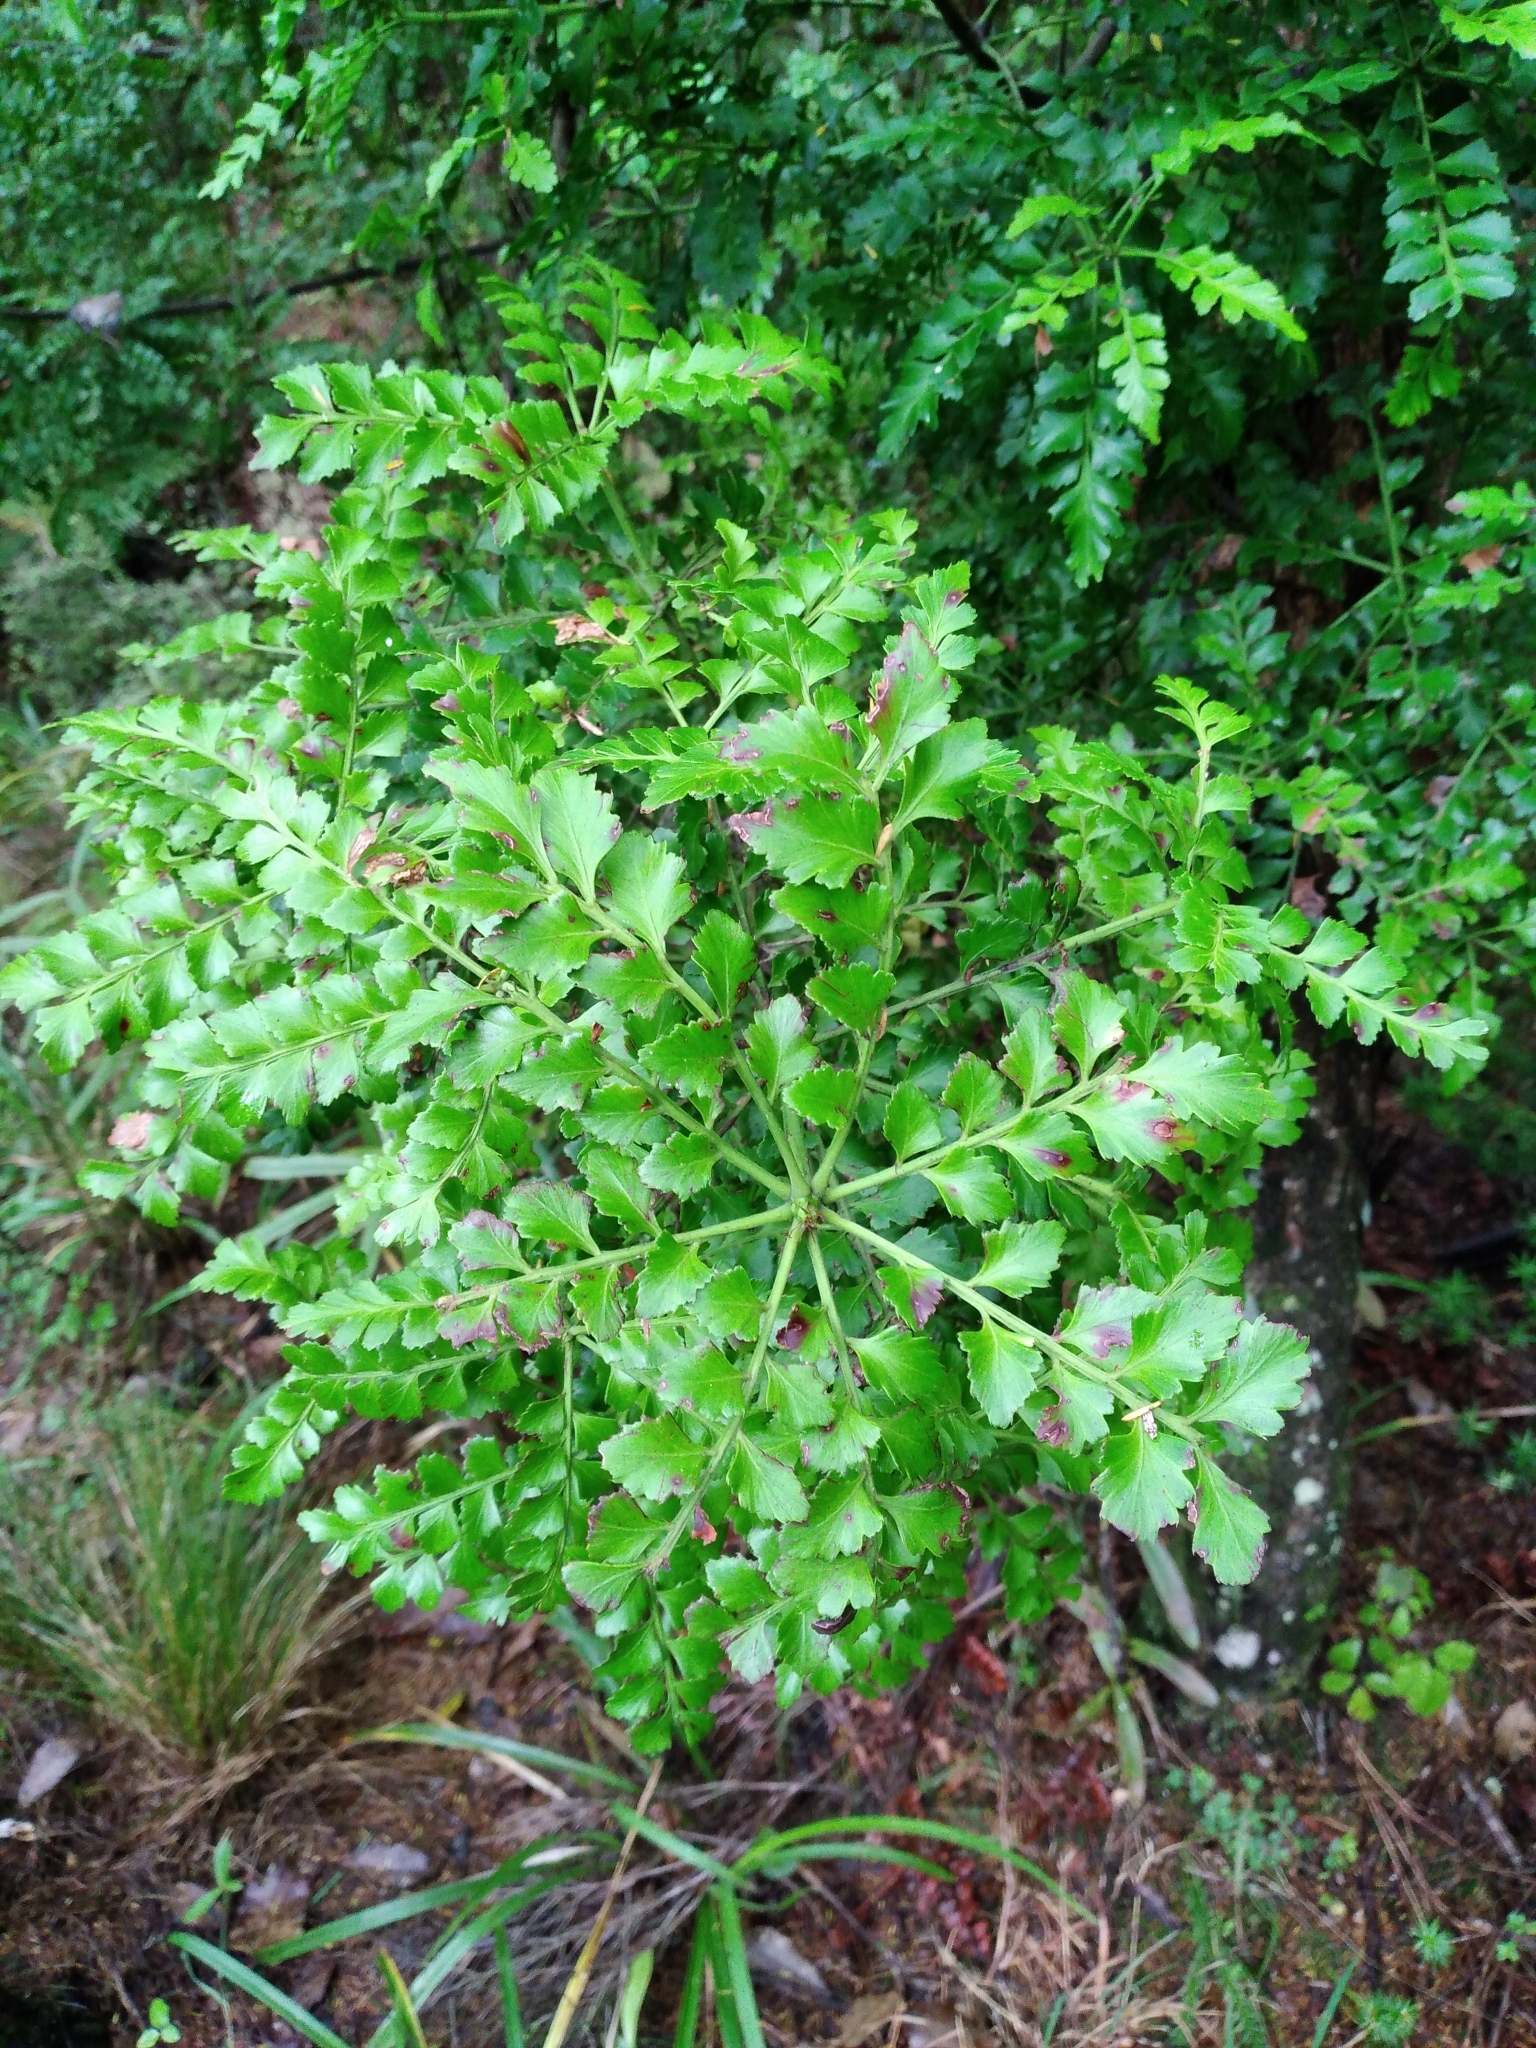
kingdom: Plantae
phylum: Tracheophyta
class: Pinopsida
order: Pinales
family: Phyllocladaceae
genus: Phyllocladus
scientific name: Phyllocladus trichomanoides
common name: Celery pine
